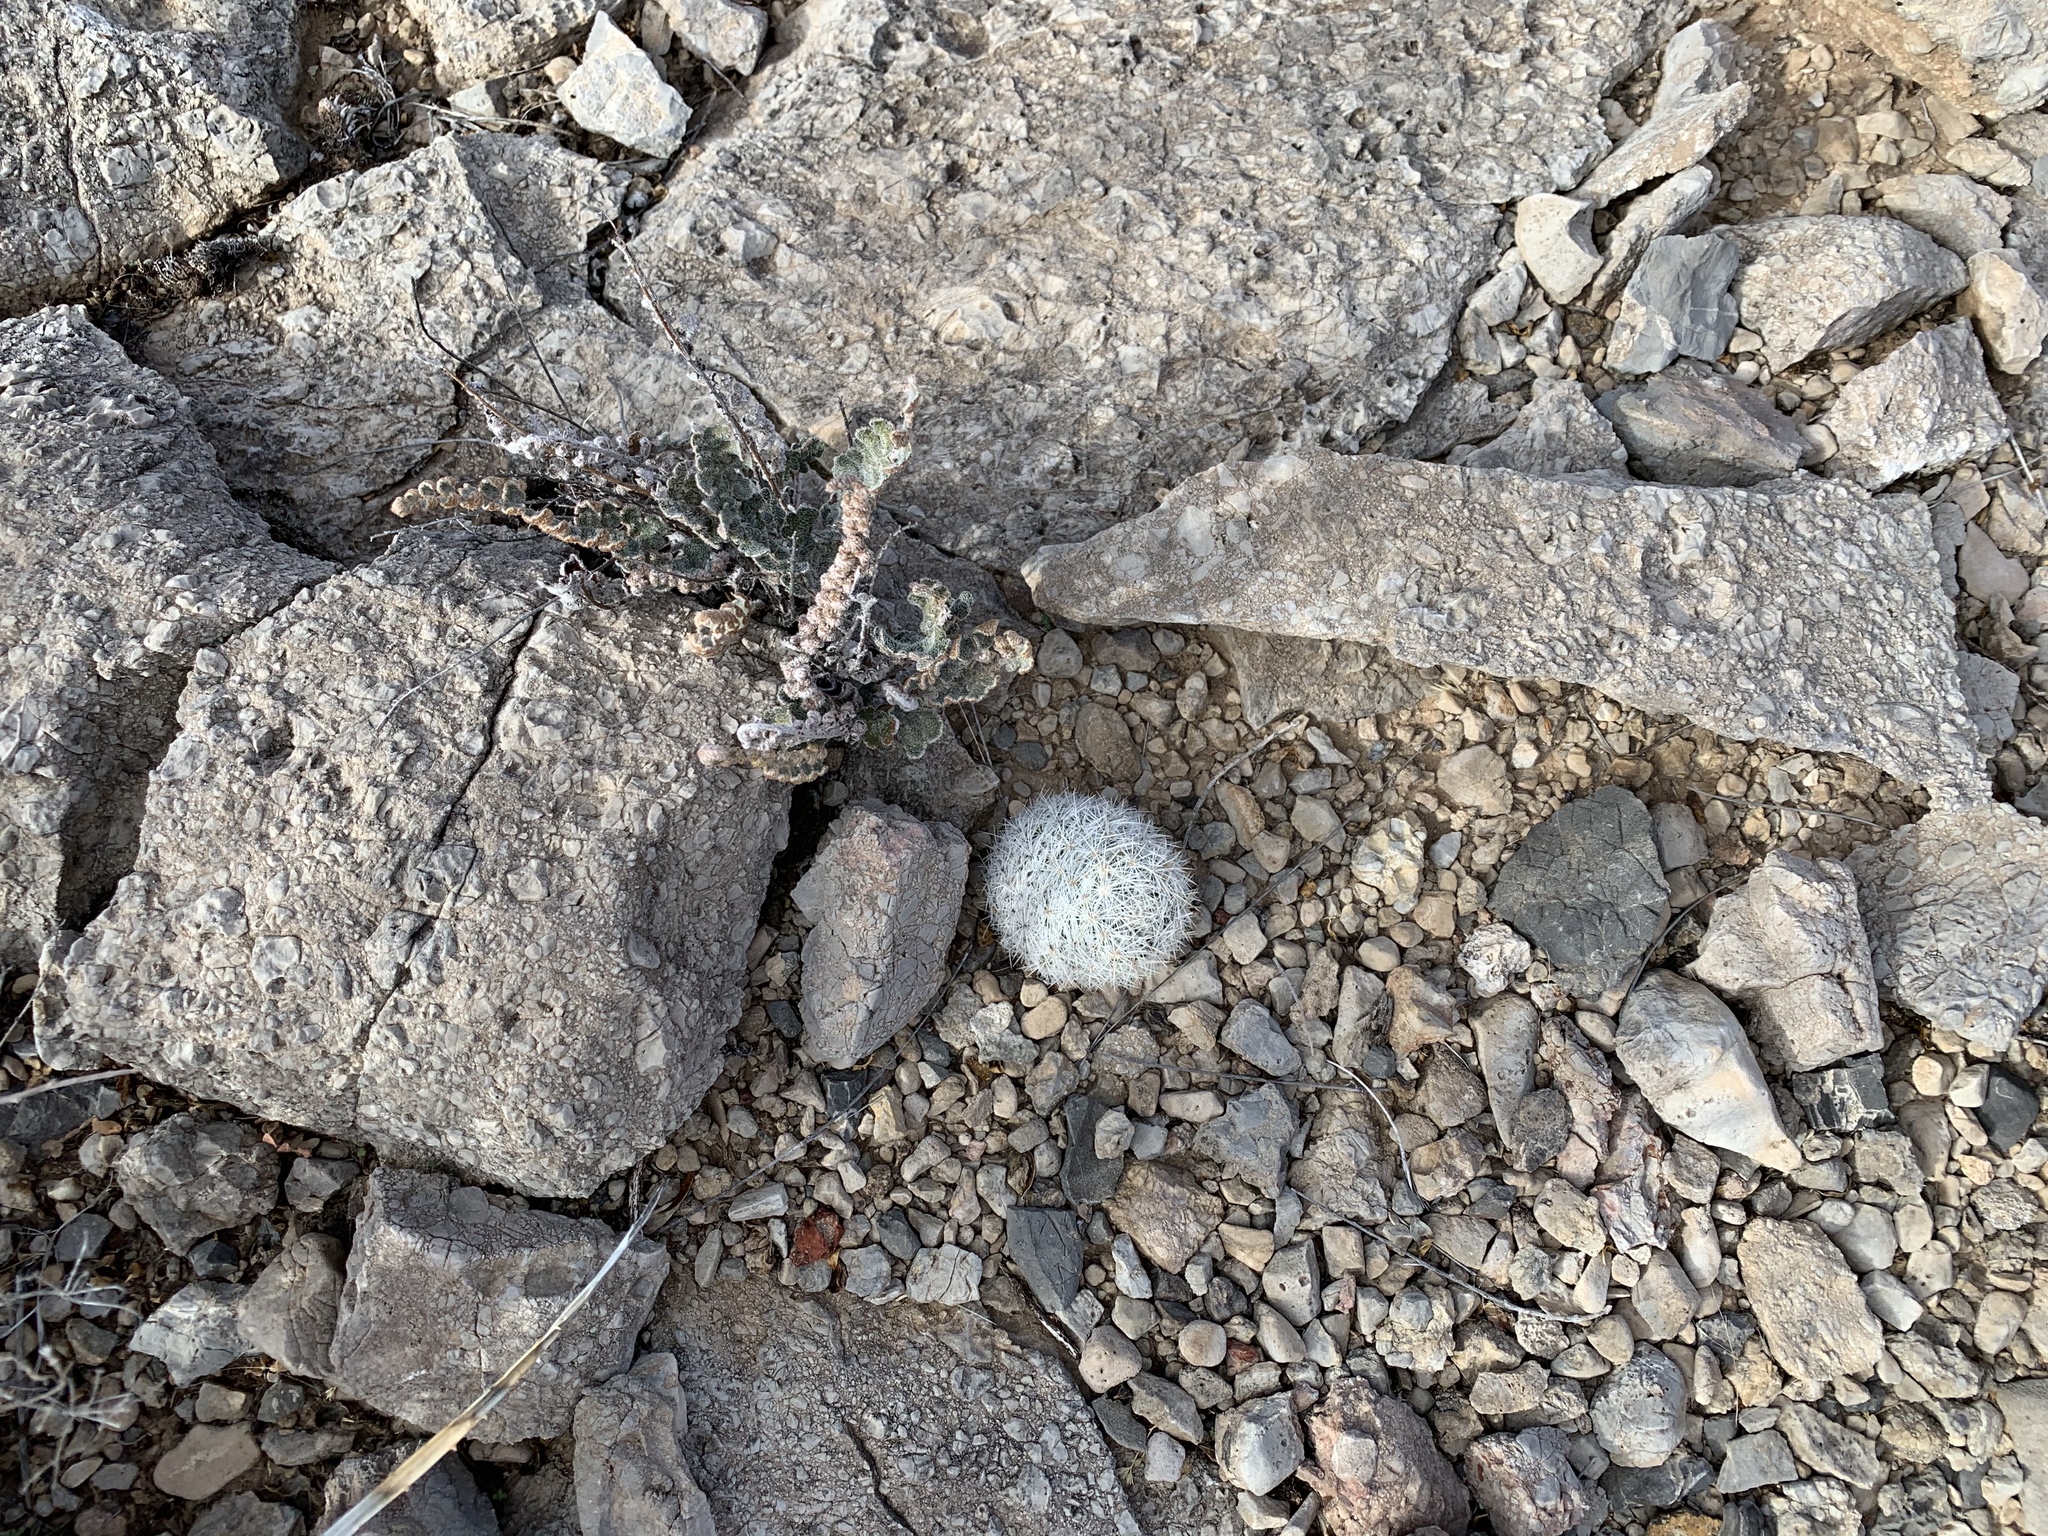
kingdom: Plantae
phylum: Tracheophyta
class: Magnoliopsida
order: Caryophyllales
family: Cactaceae
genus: Pelecyphora
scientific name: Pelecyphora sneedii
